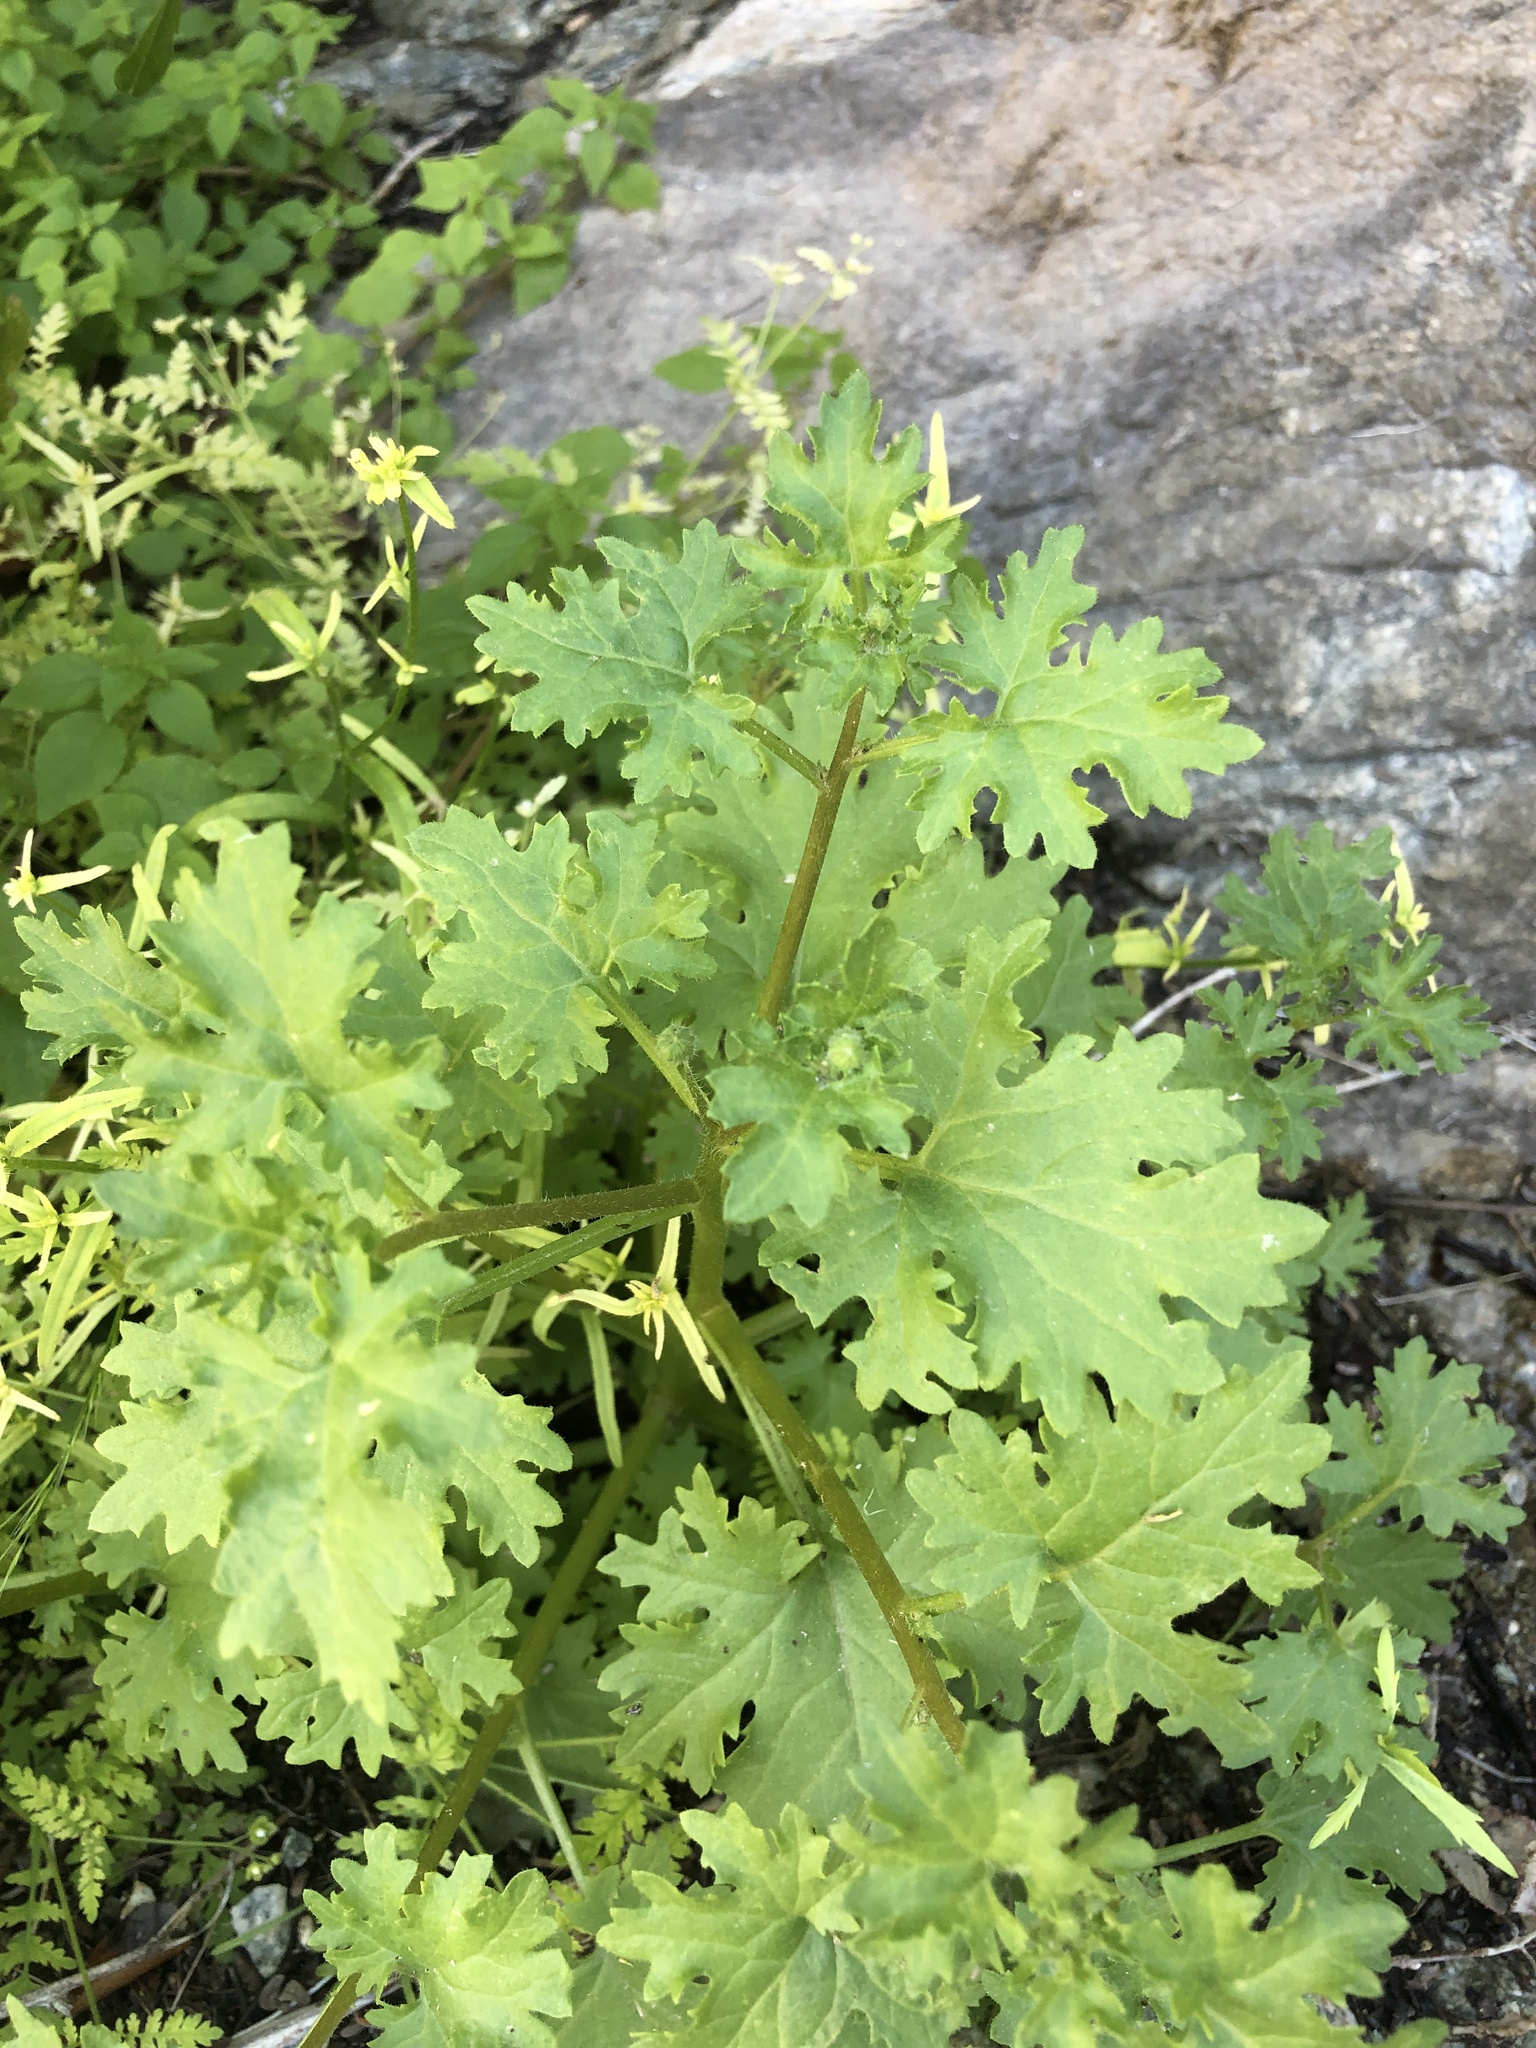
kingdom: Plantae
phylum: Tracheophyta
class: Magnoliopsida
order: Asterales
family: Asteraceae
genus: Laphamia
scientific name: Laphamia emoryi
